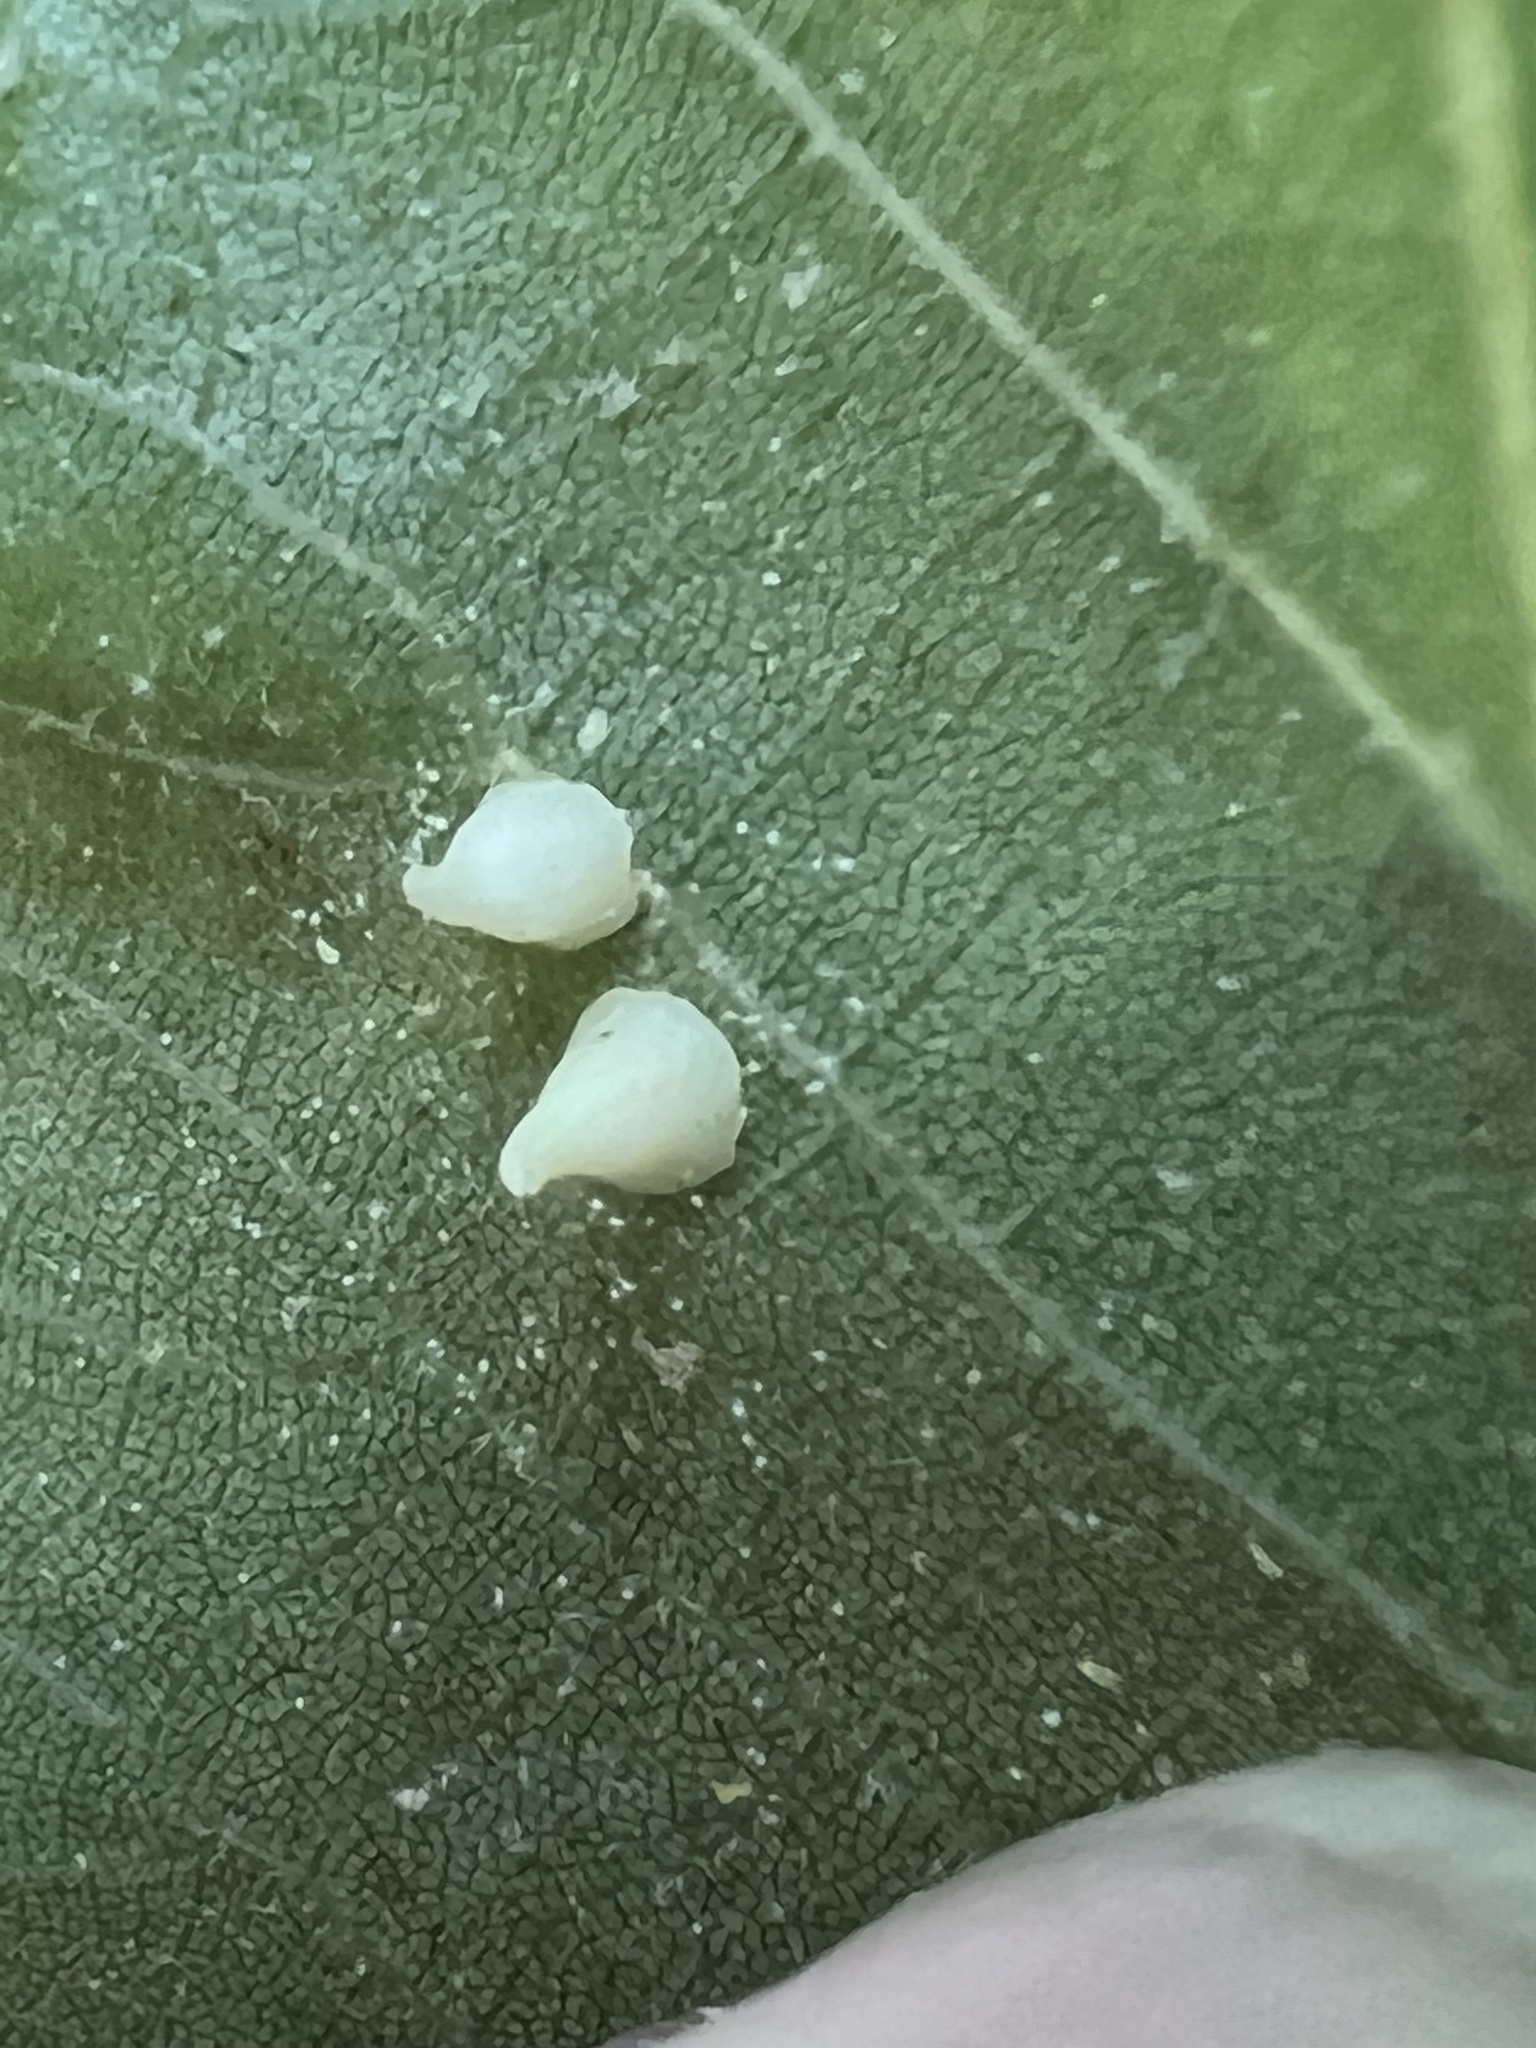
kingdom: Animalia
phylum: Arthropoda
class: Insecta
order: Diptera
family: Cecidomyiidae
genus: Caryomyia
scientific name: Caryomyia sanguinolenta
